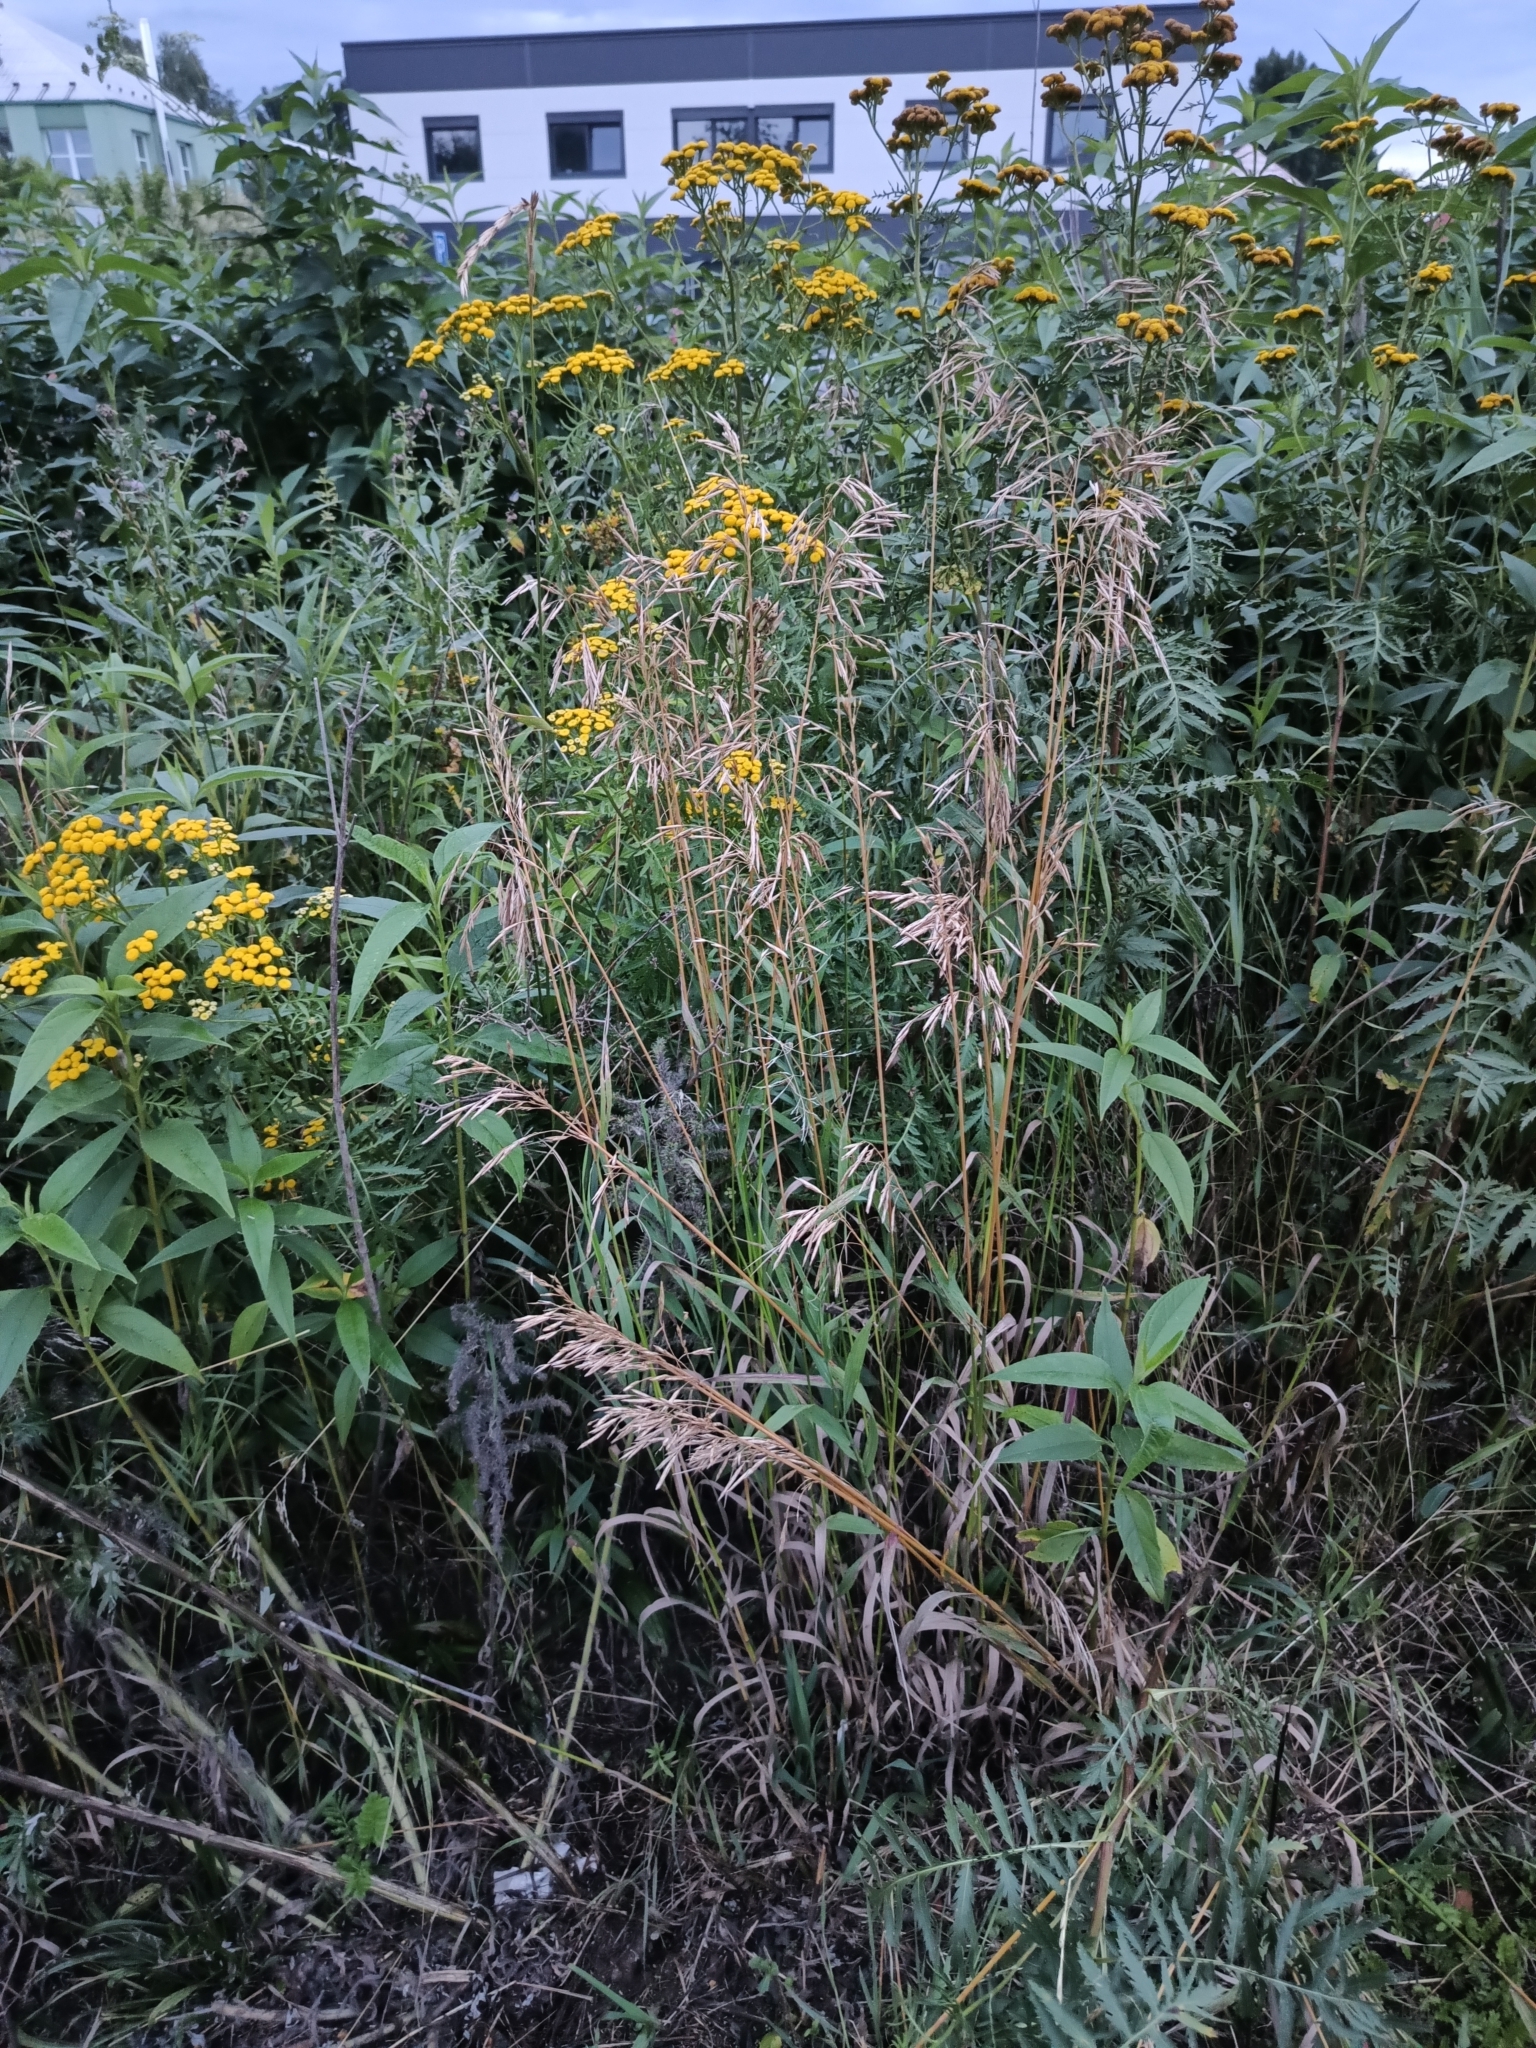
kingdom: Plantae
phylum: Tracheophyta
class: Liliopsida
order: Poales
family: Poaceae
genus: Bromus
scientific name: Bromus inermis
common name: Smooth brome
